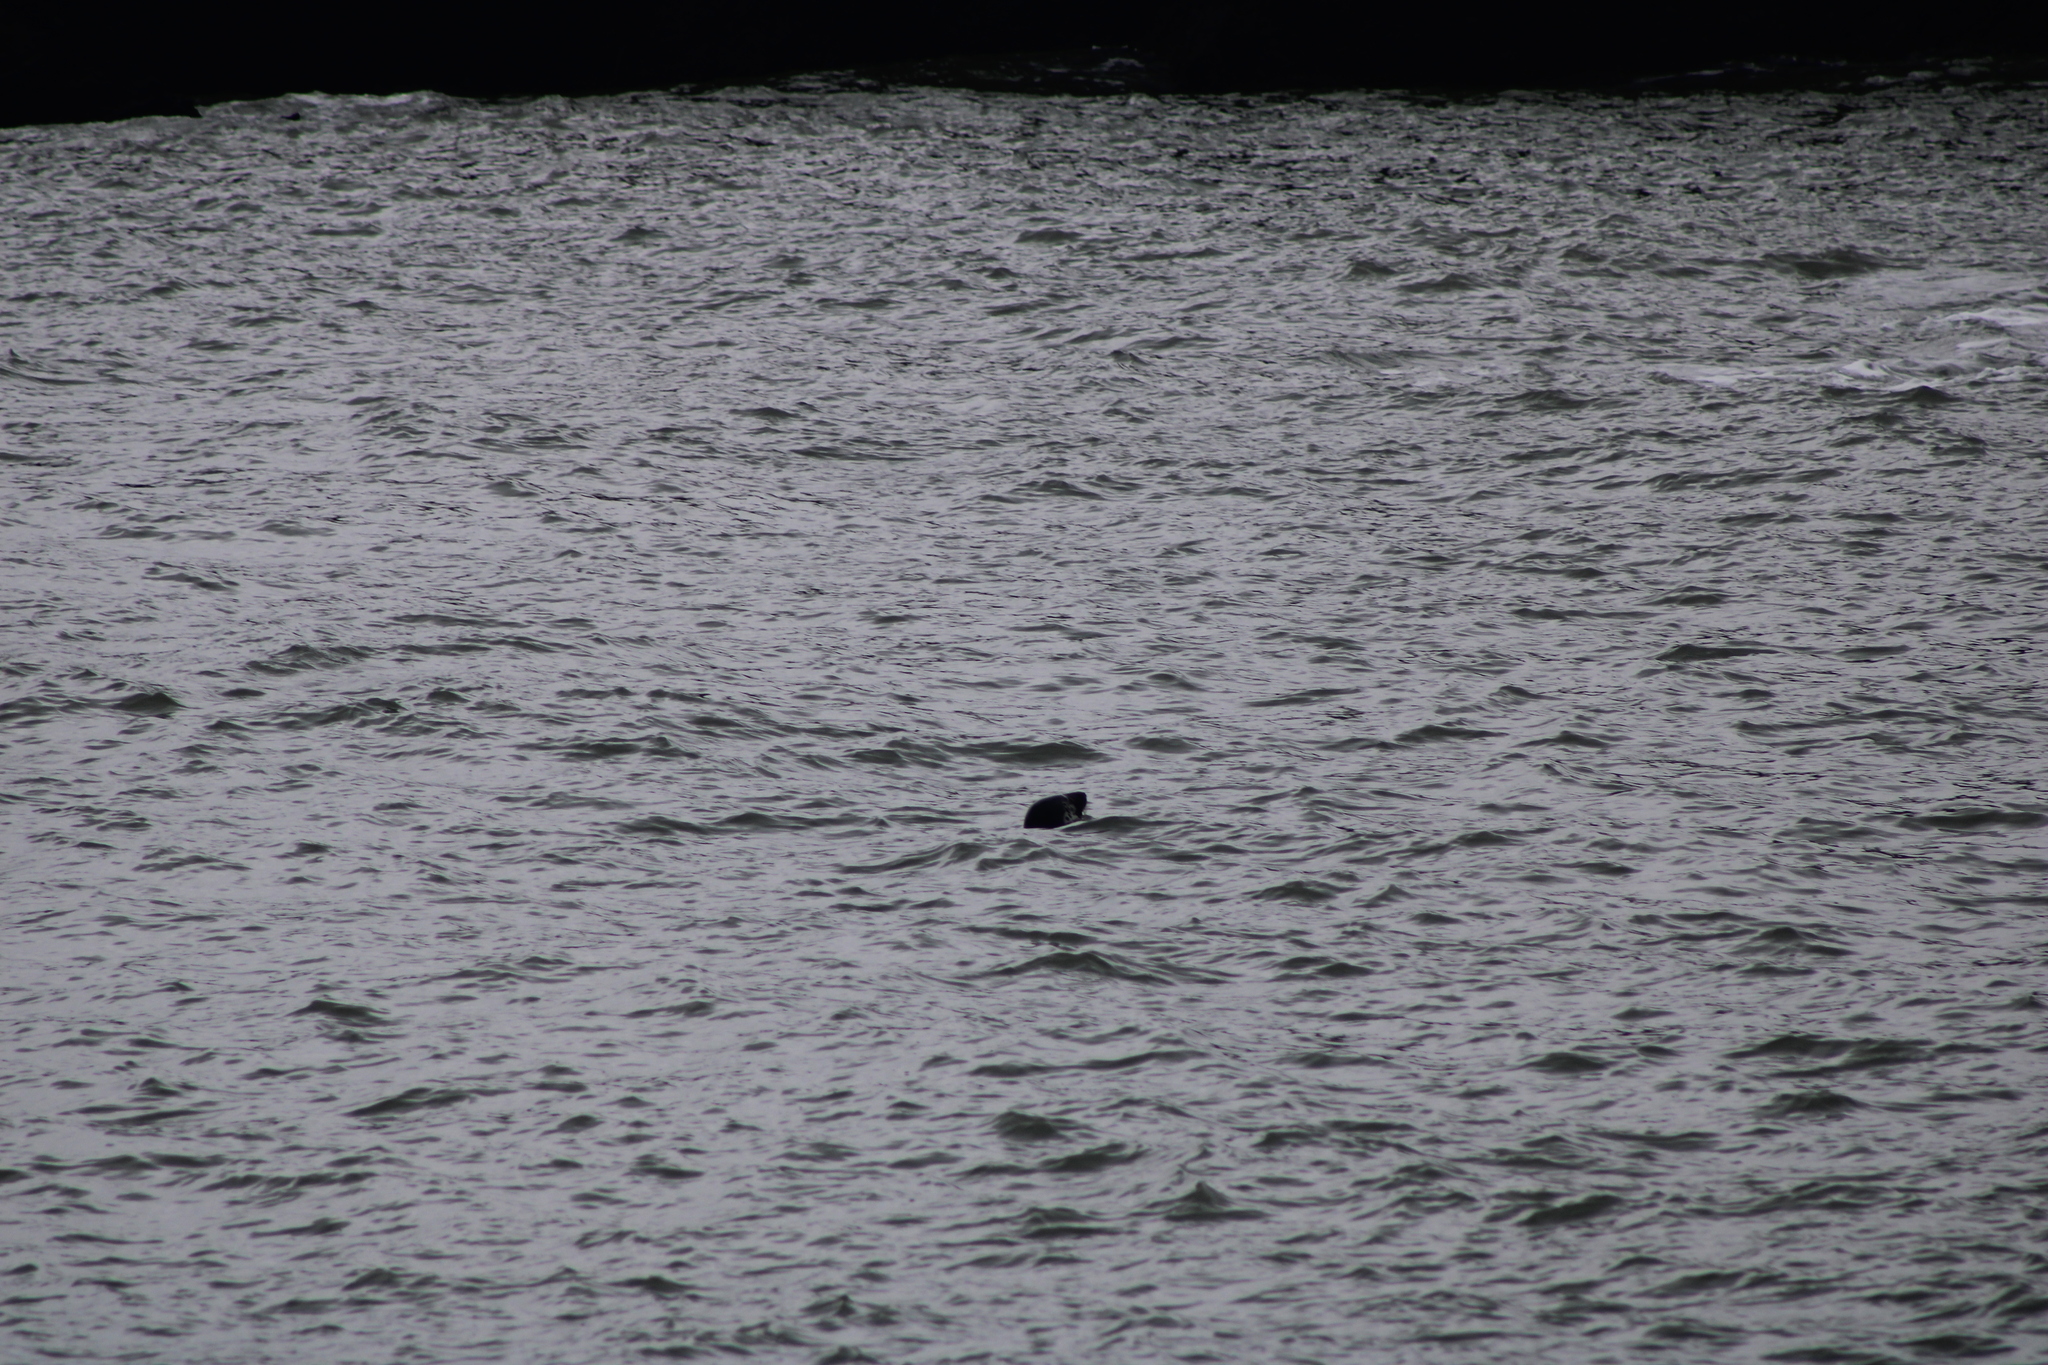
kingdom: Animalia
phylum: Chordata
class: Mammalia
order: Carnivora
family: Phocidae
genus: Halichoerus
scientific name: Halichoerus grypus
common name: Grey seal
